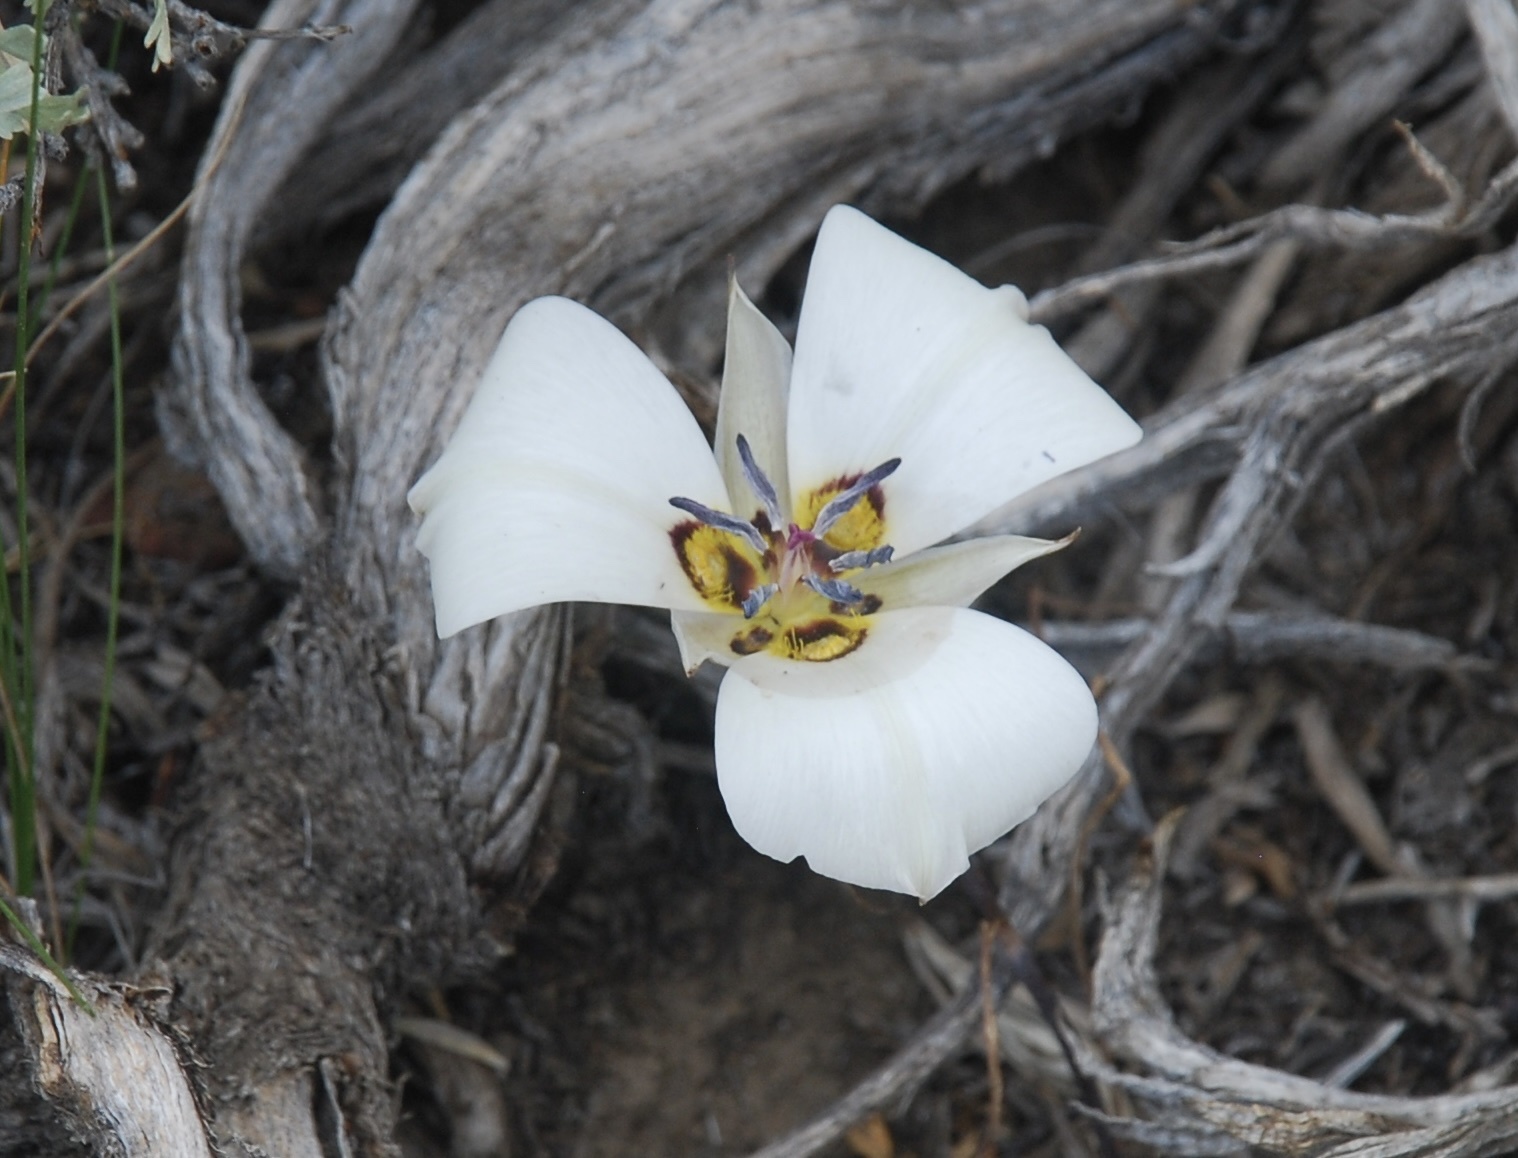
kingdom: Plantae
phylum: Tracheophyta
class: Liliopsida
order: Liliales
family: Liliaceae
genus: Calochortus
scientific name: Calochortus bruneaunis
